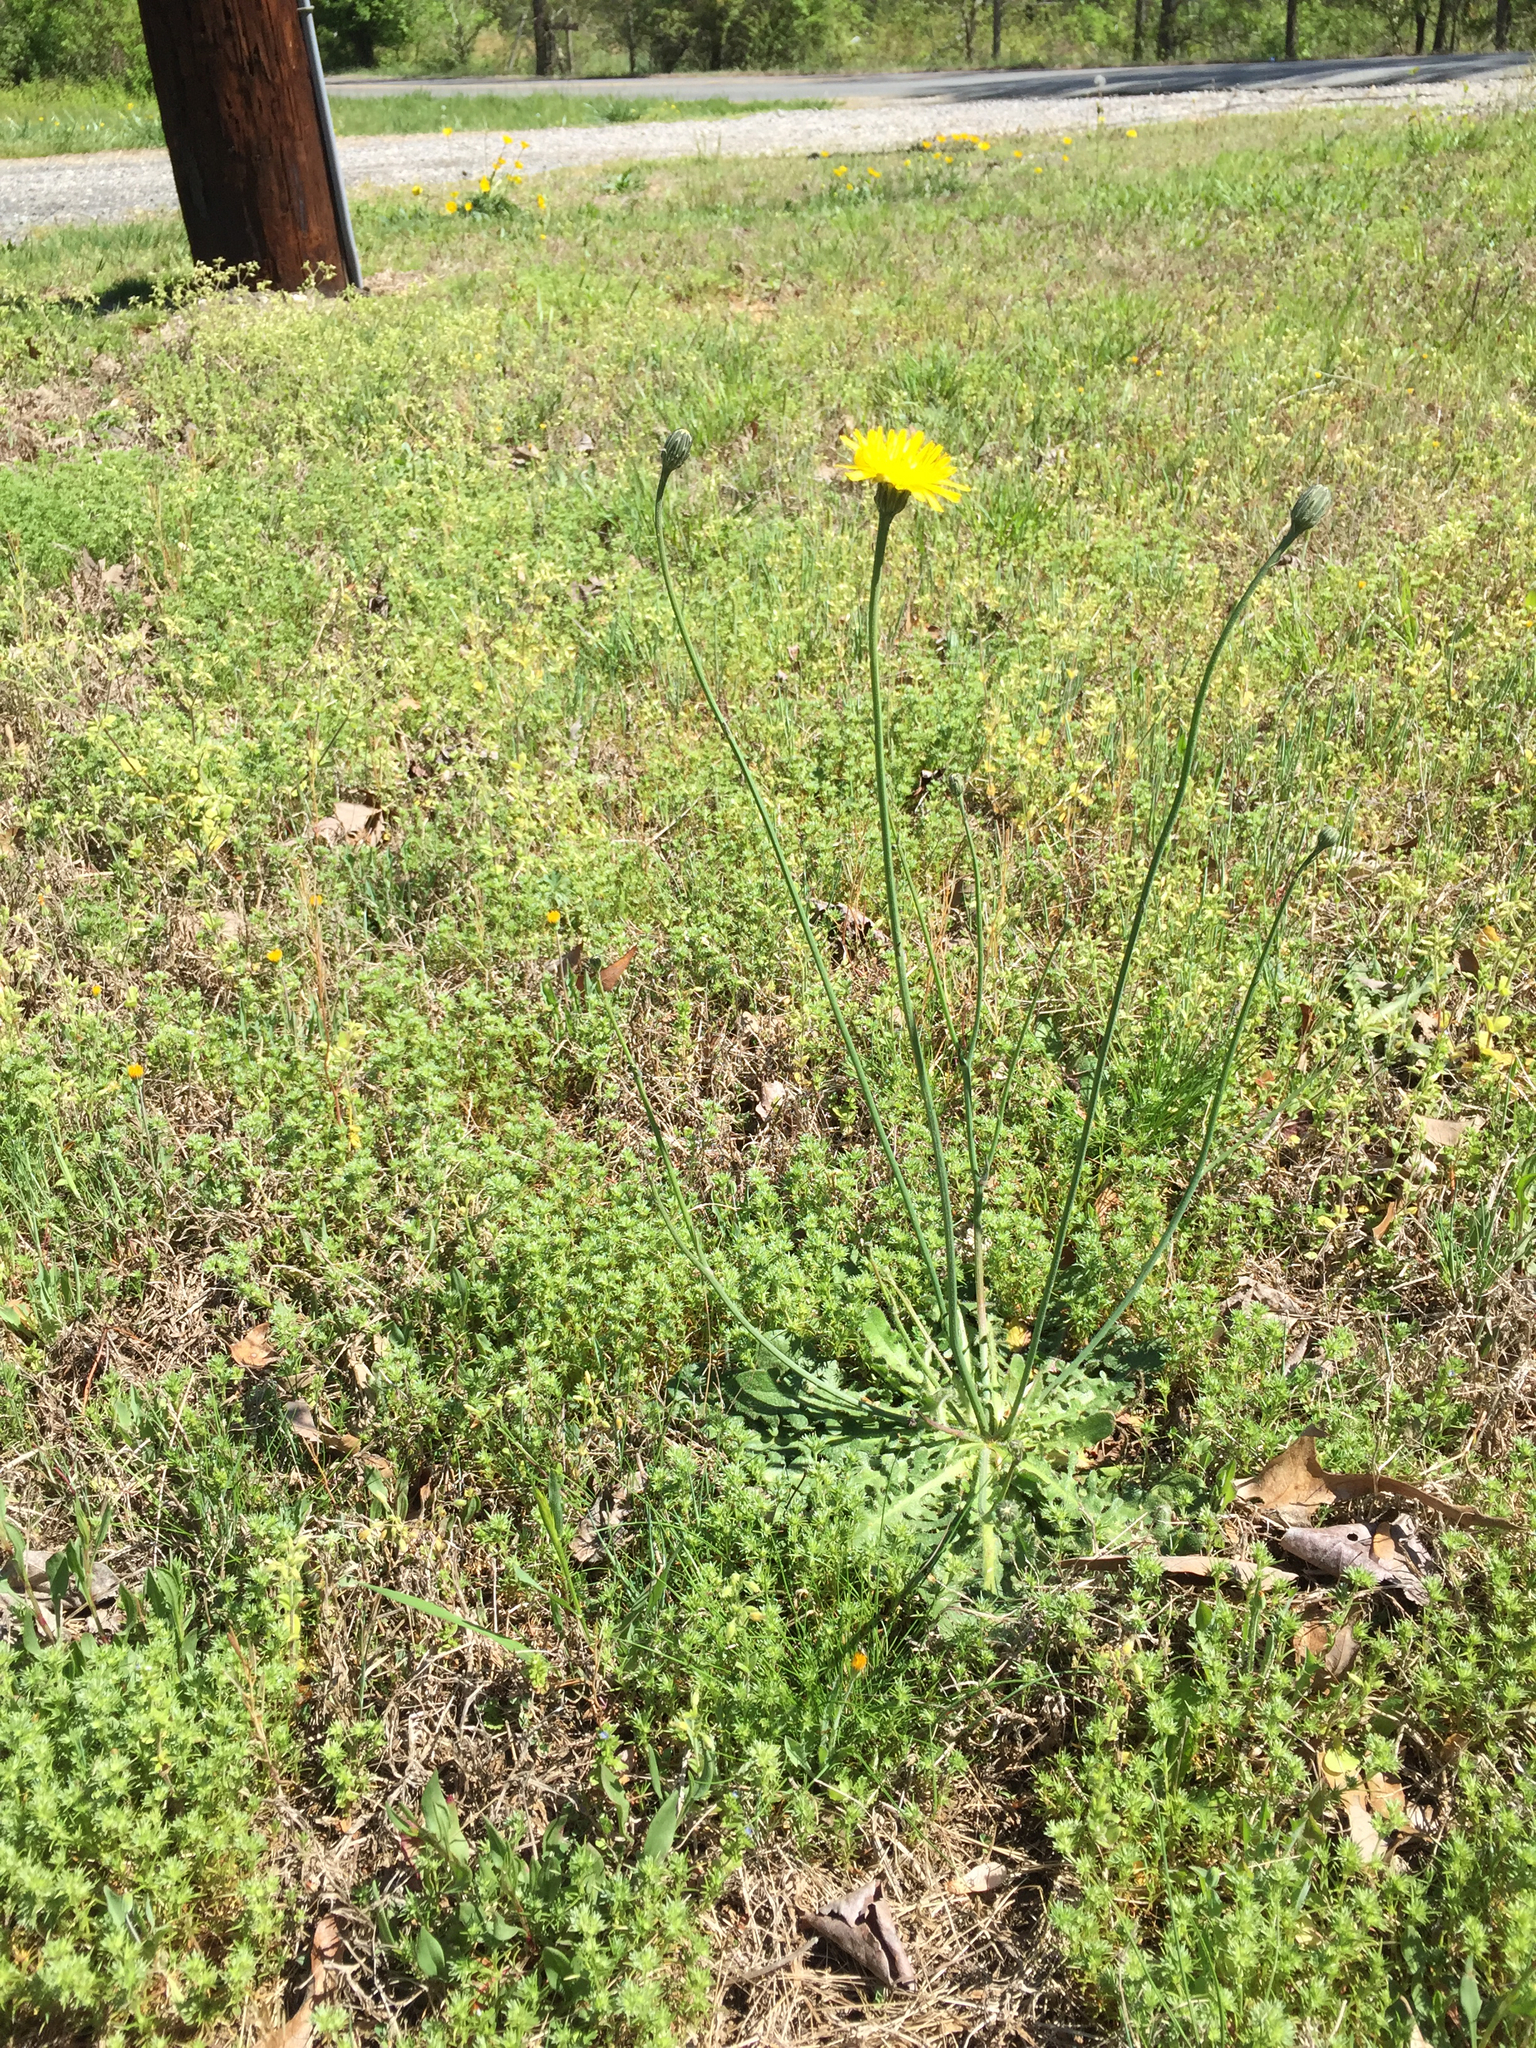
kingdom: Plantae
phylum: Tracheophyta
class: Magnoliopsida
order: Asterales
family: Asteraceae
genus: Hypochaeris
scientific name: Hypochaeris radicata
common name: Flatweed
